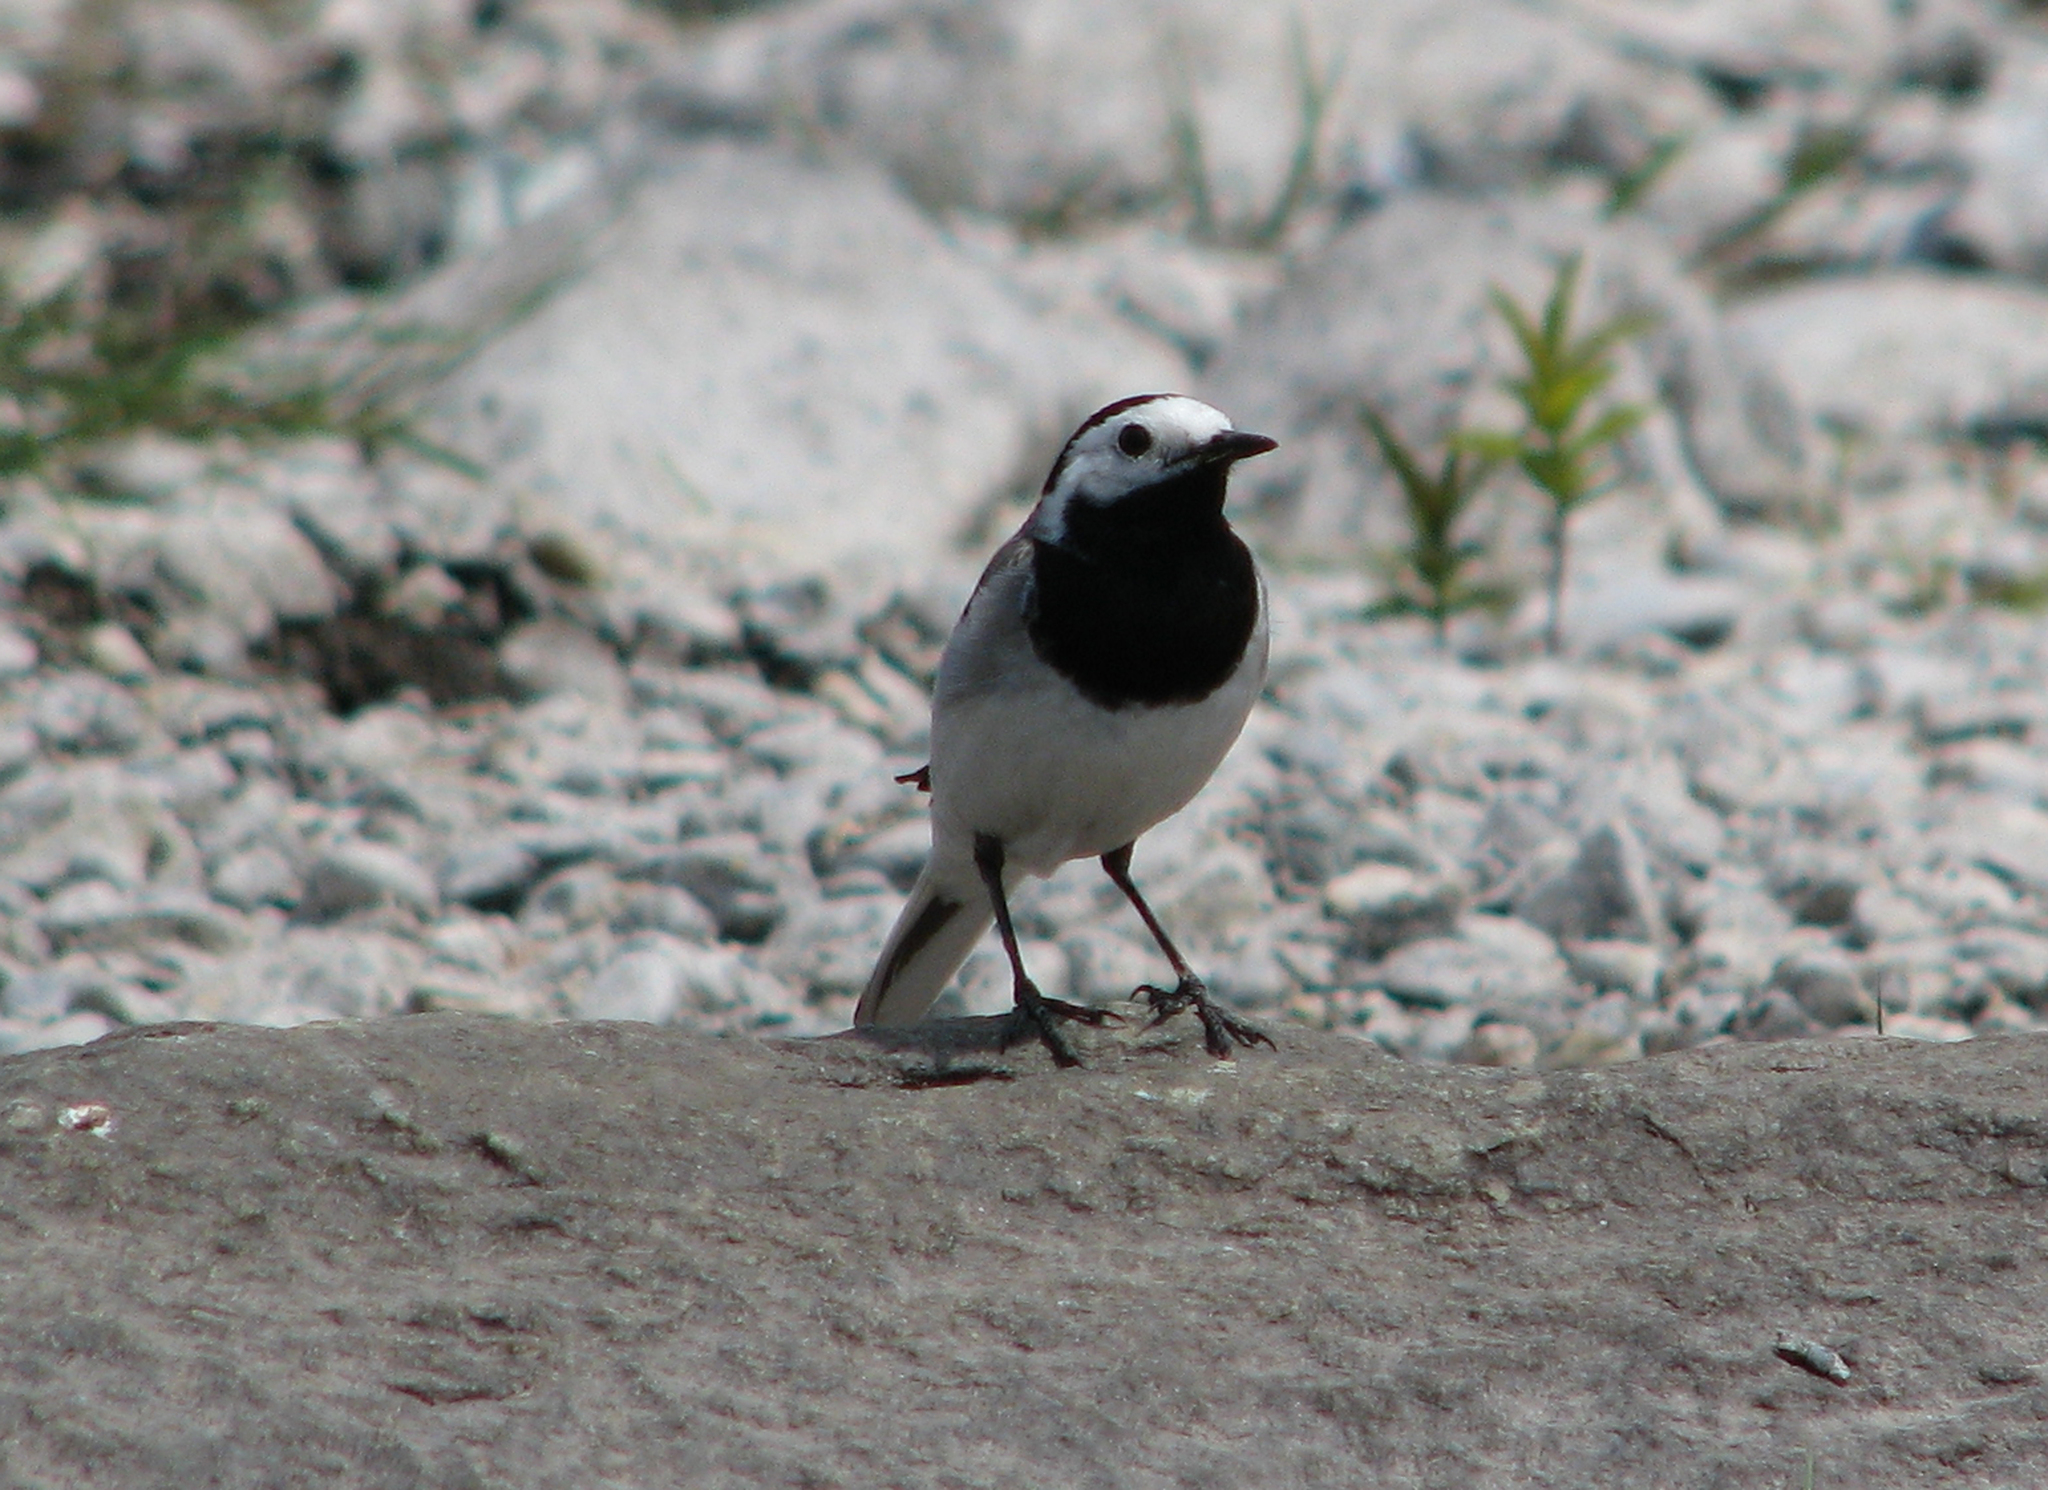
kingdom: Animalia
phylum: Chordata
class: Aves
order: Passeriformes
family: Motacillidae
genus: Motacilla
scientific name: Motacilla alba
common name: White wagtail
